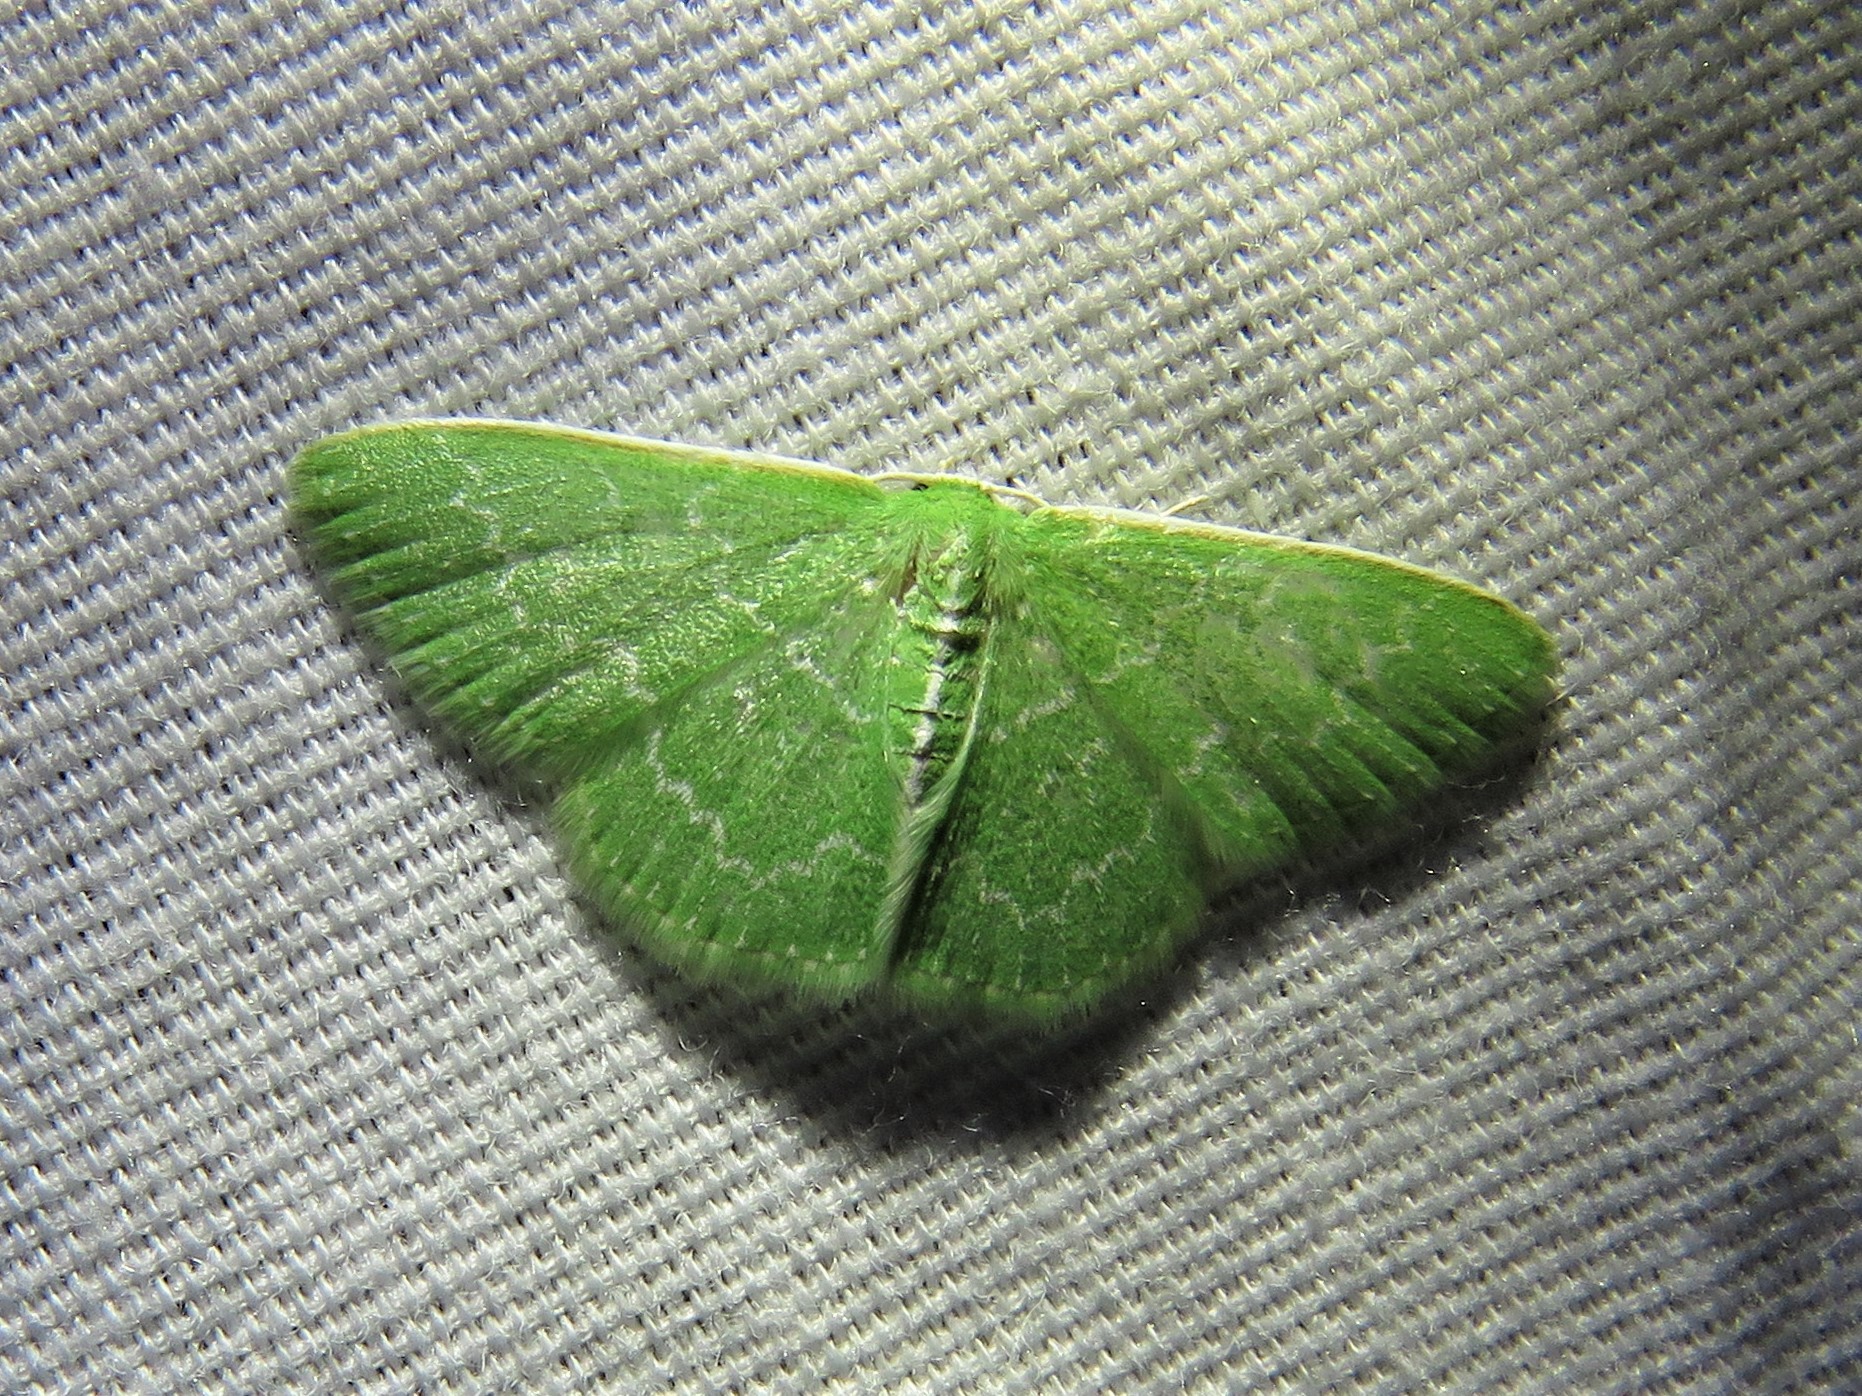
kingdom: Animalia
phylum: Arthropoda
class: Insecta
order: Lepidoptera
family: Geometridae
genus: Synchlora
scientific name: Synchlora frondaria
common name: Southern emerald
